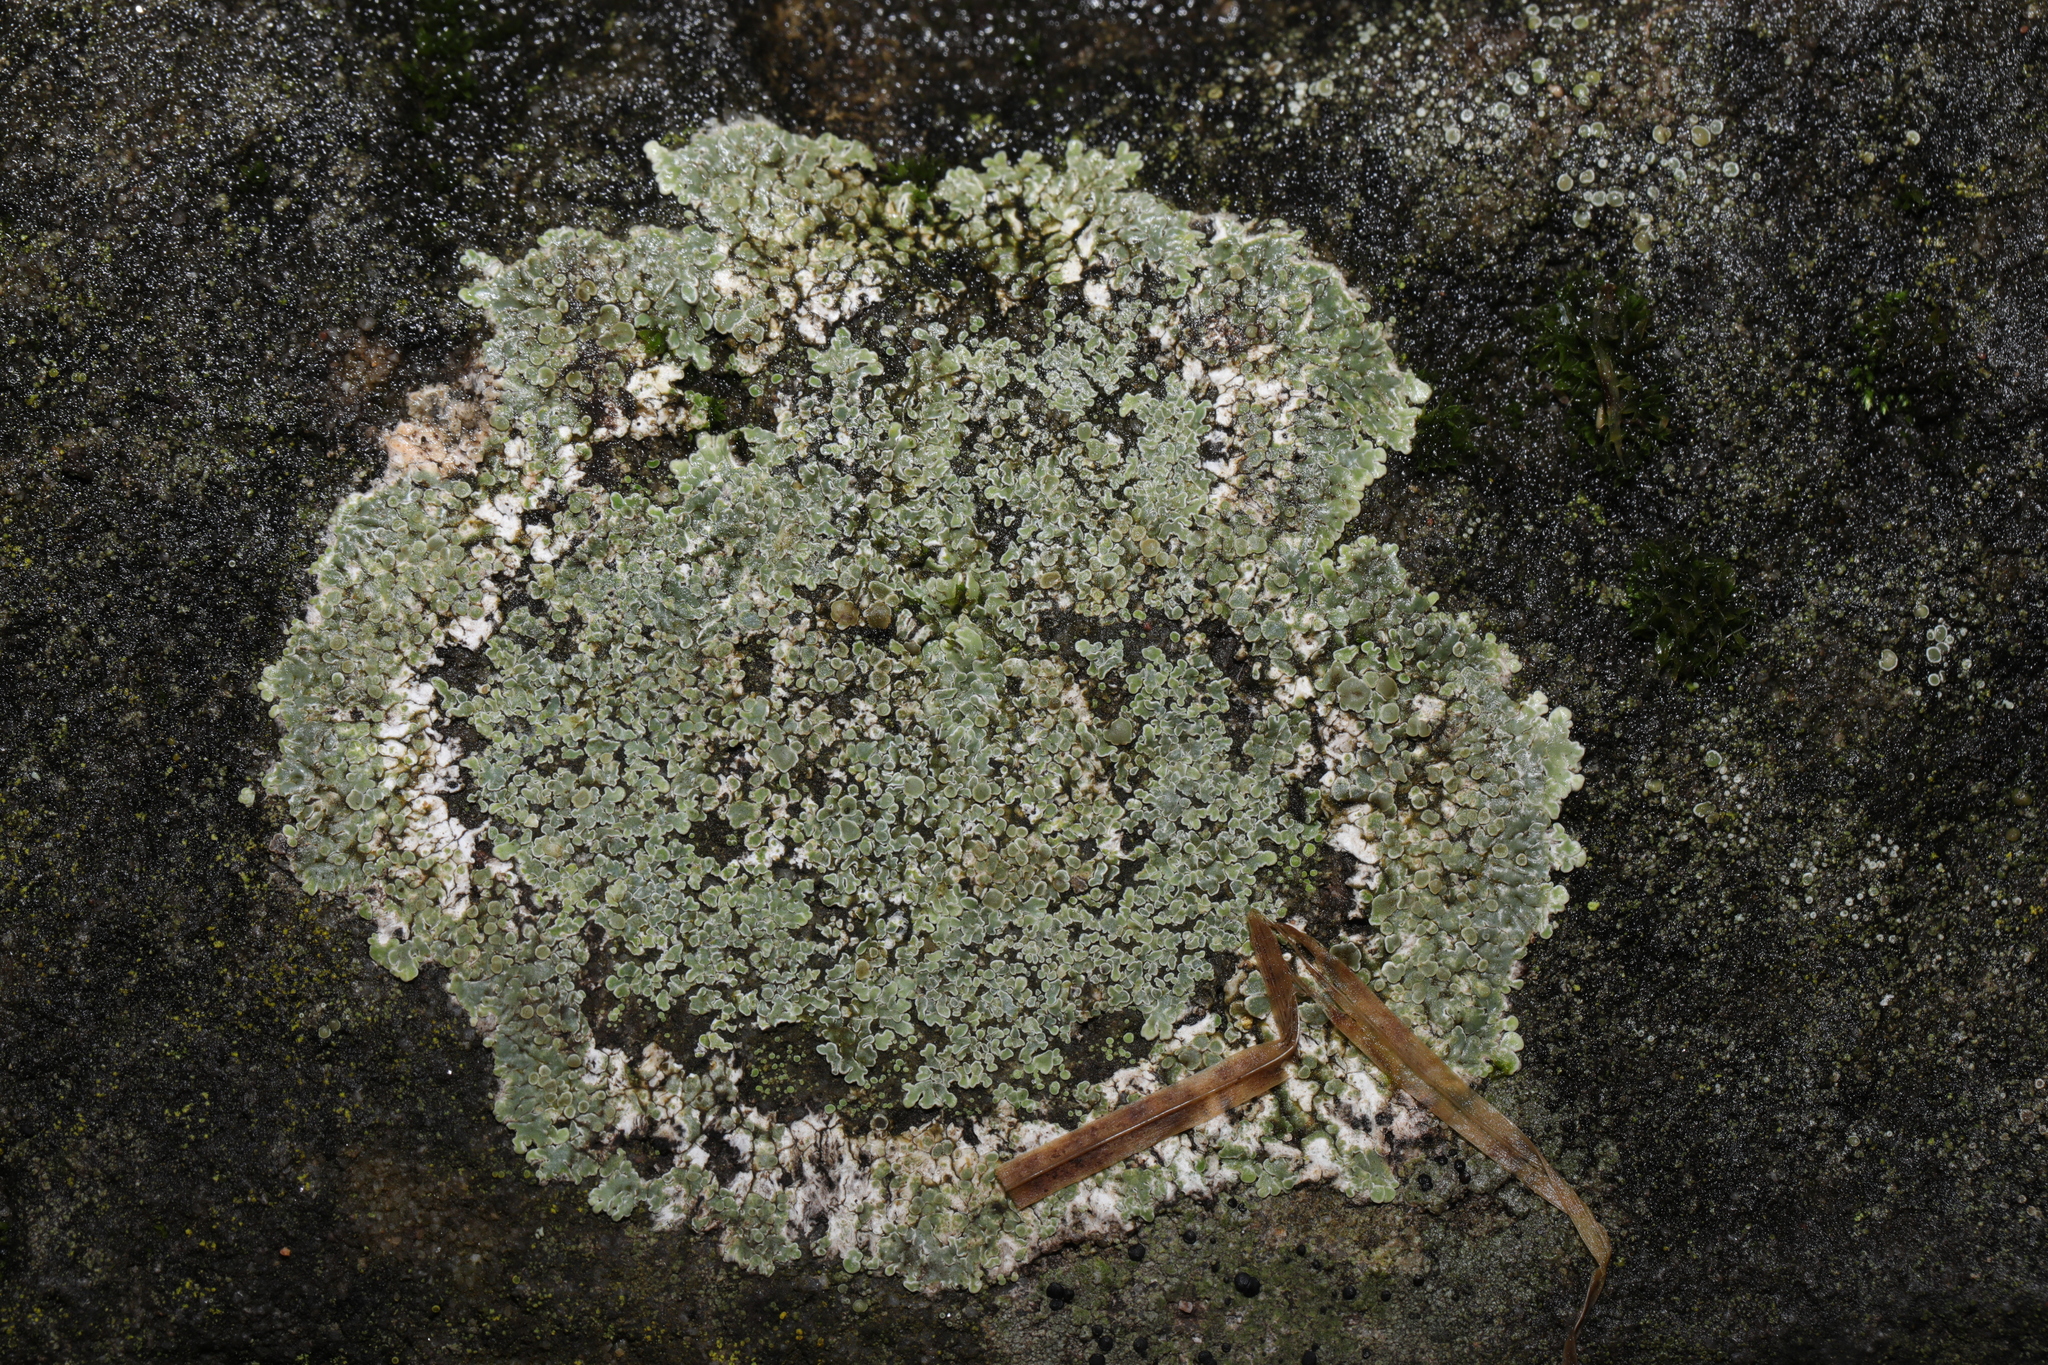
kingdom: Fungi
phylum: Ascomycota
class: Lecanoromycetes
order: Lecanorales
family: Lecanoraceae
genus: Protoparmeliopsis
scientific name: Protoparmeliopsis muralis
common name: Stonewall rim lichen
